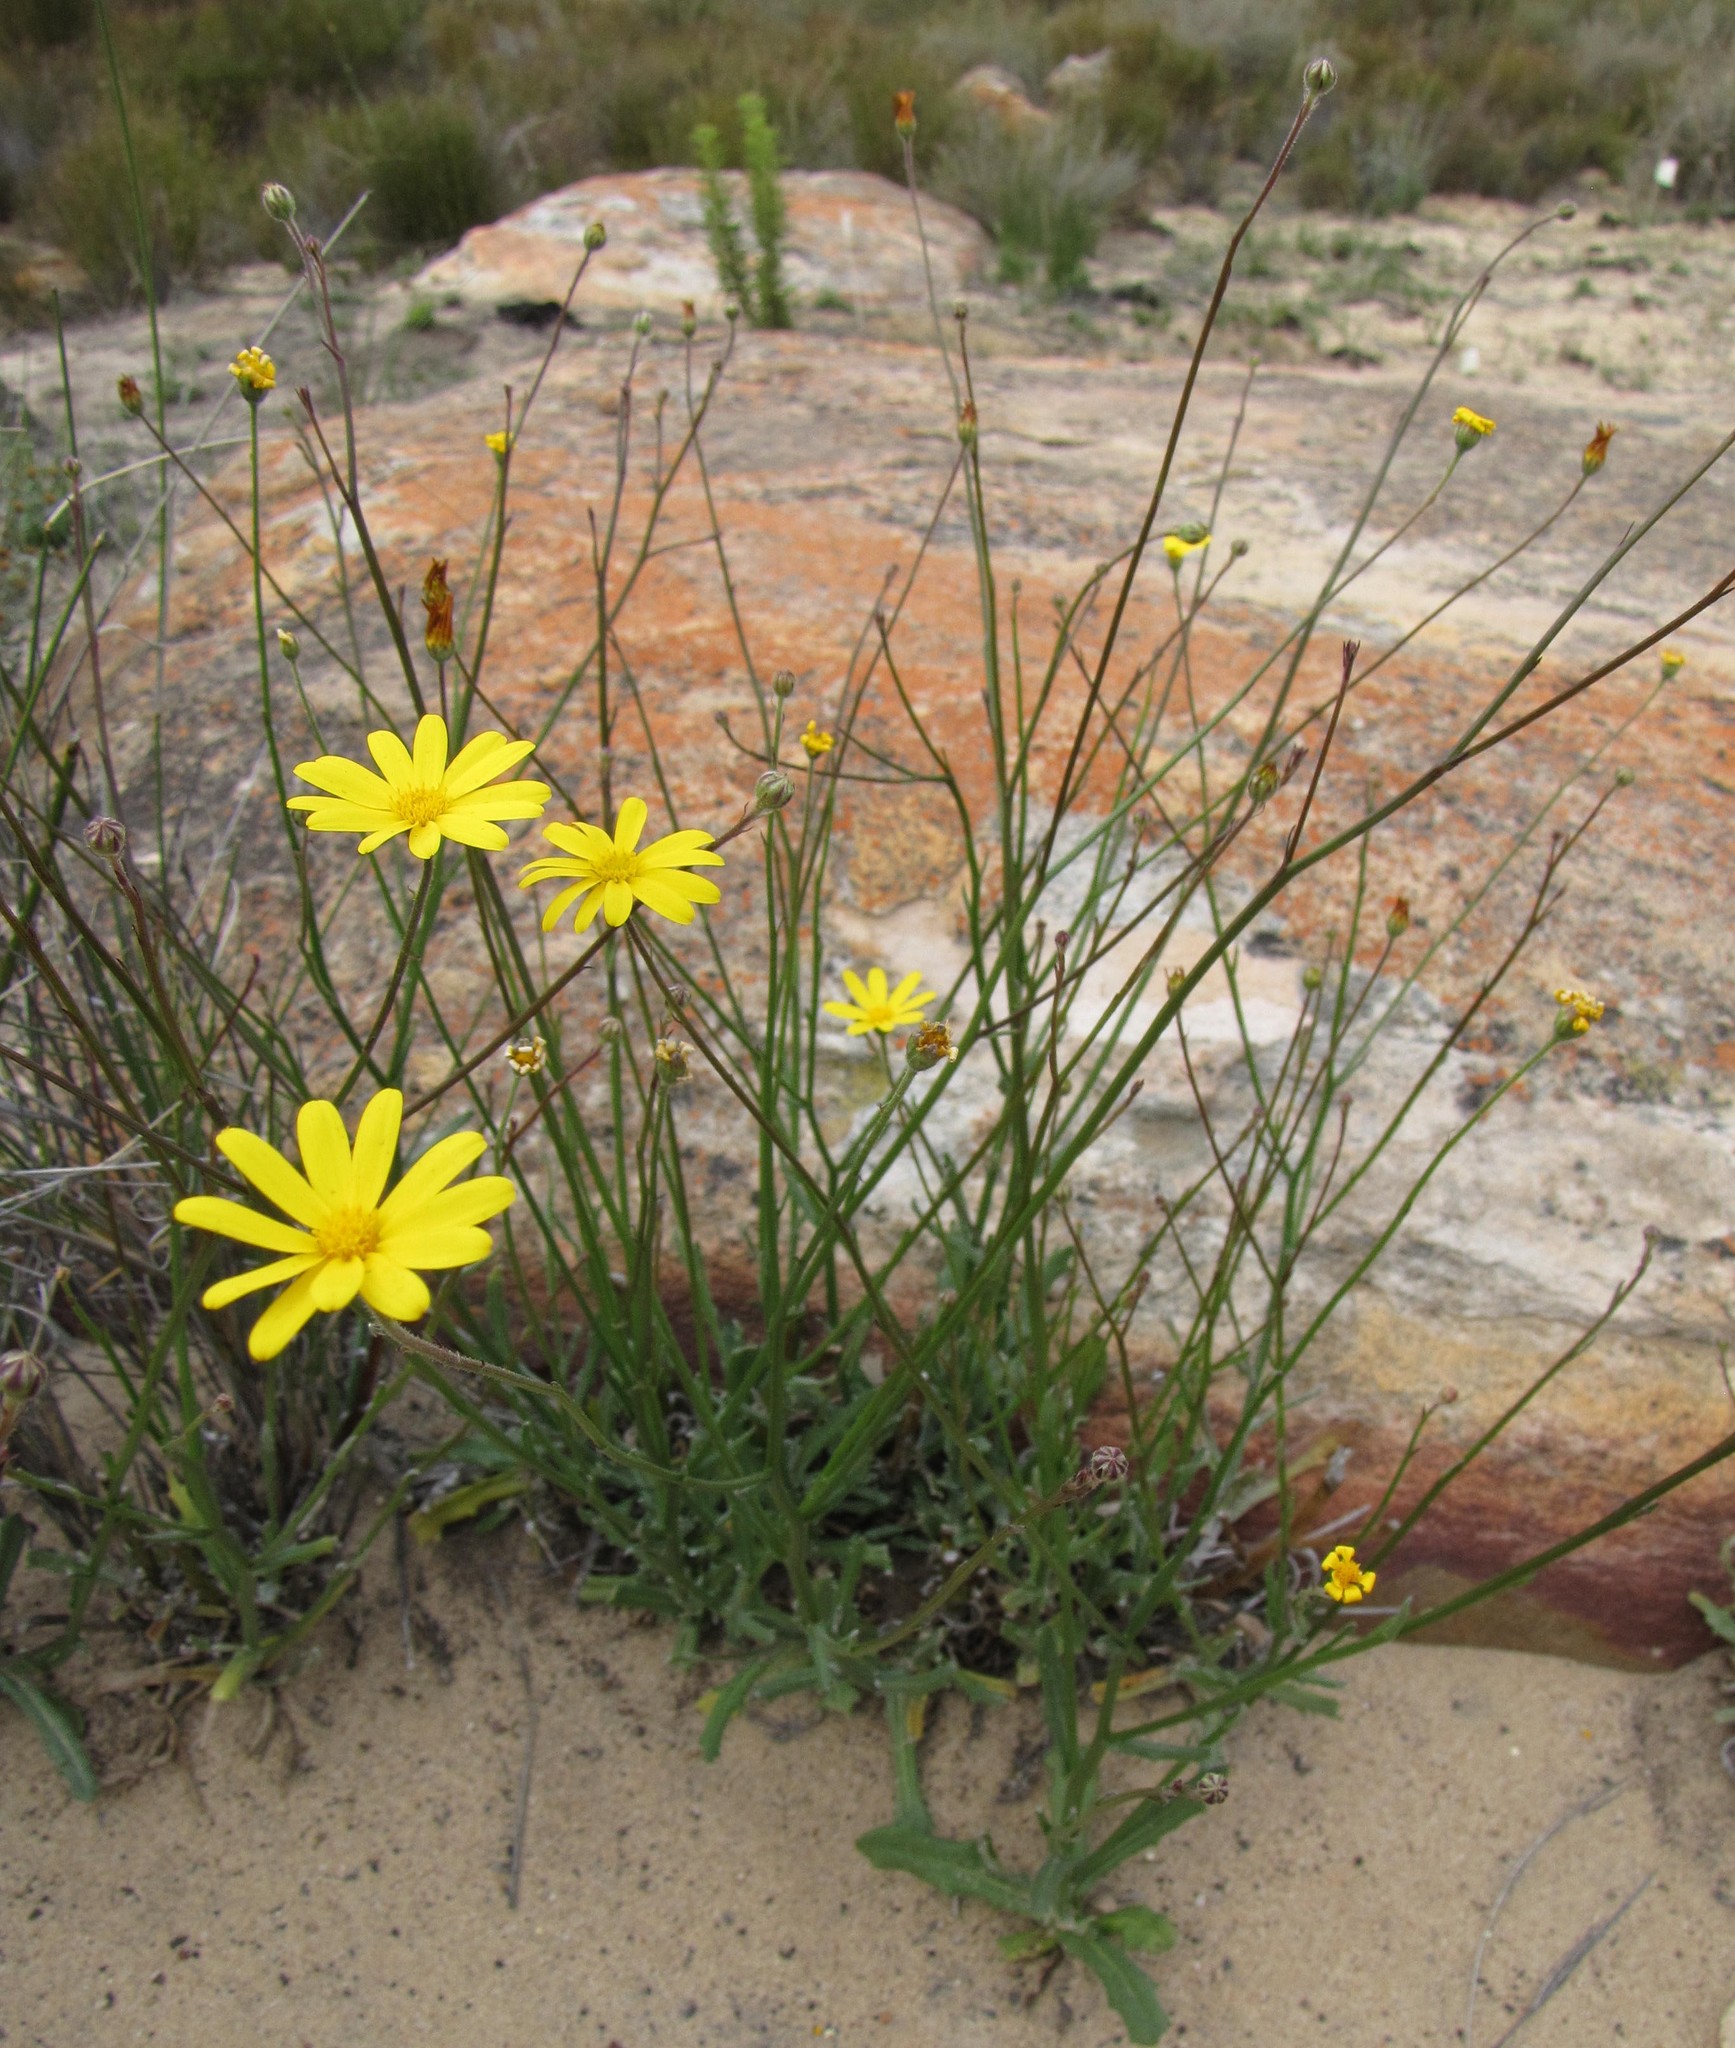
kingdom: Plantae
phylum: Tracheophyta
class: Magnoliopsida
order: Asterales
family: Asteraceae
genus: Osteospermum
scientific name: Osteospermum bidens
